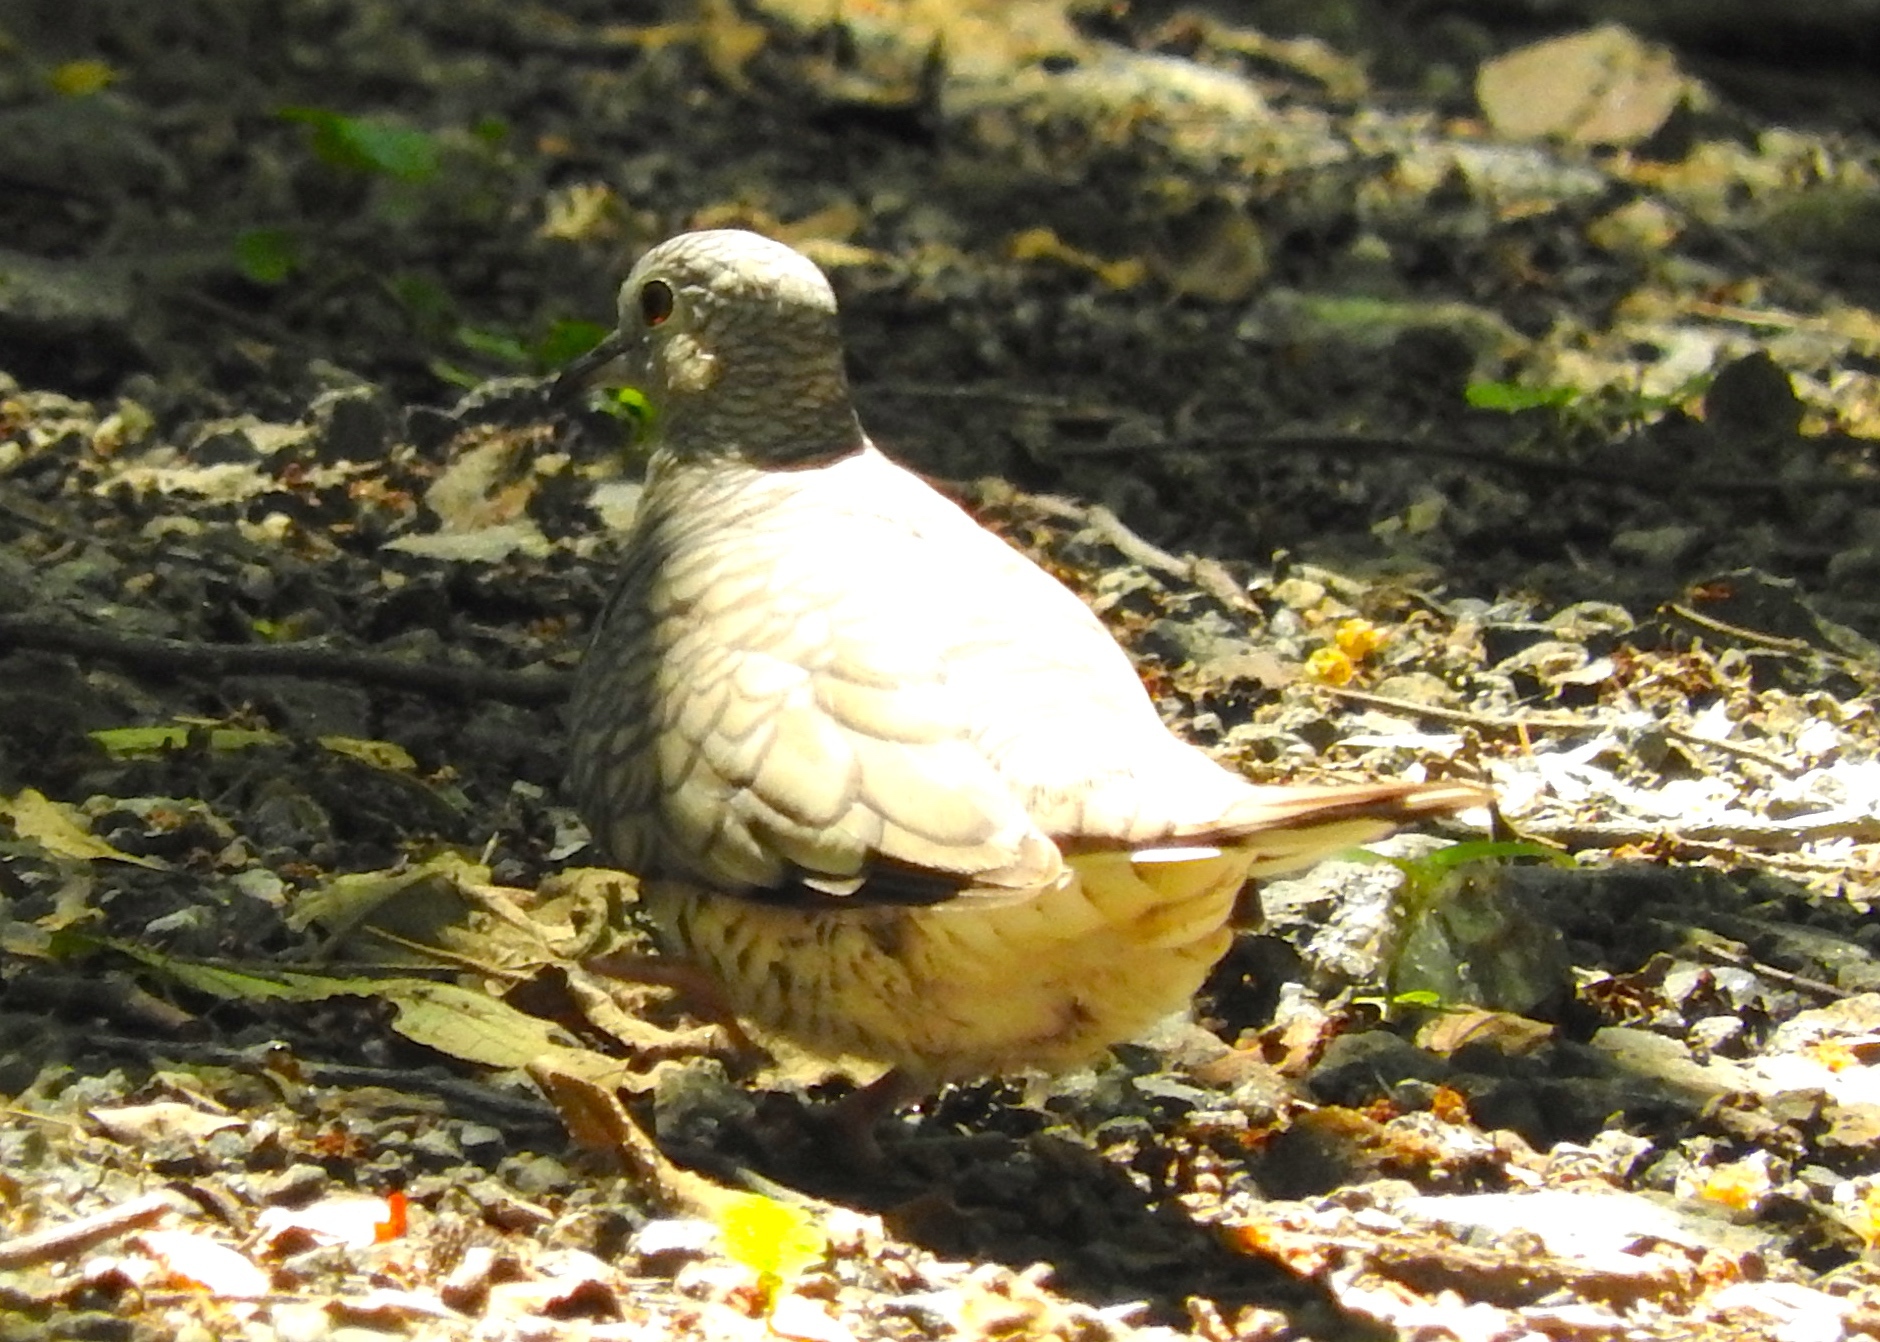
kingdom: Animalia
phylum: Chordata
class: Aves
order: Columbiformes
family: Columbidae
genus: Columbina
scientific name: Columbina inca
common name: Inca dove
